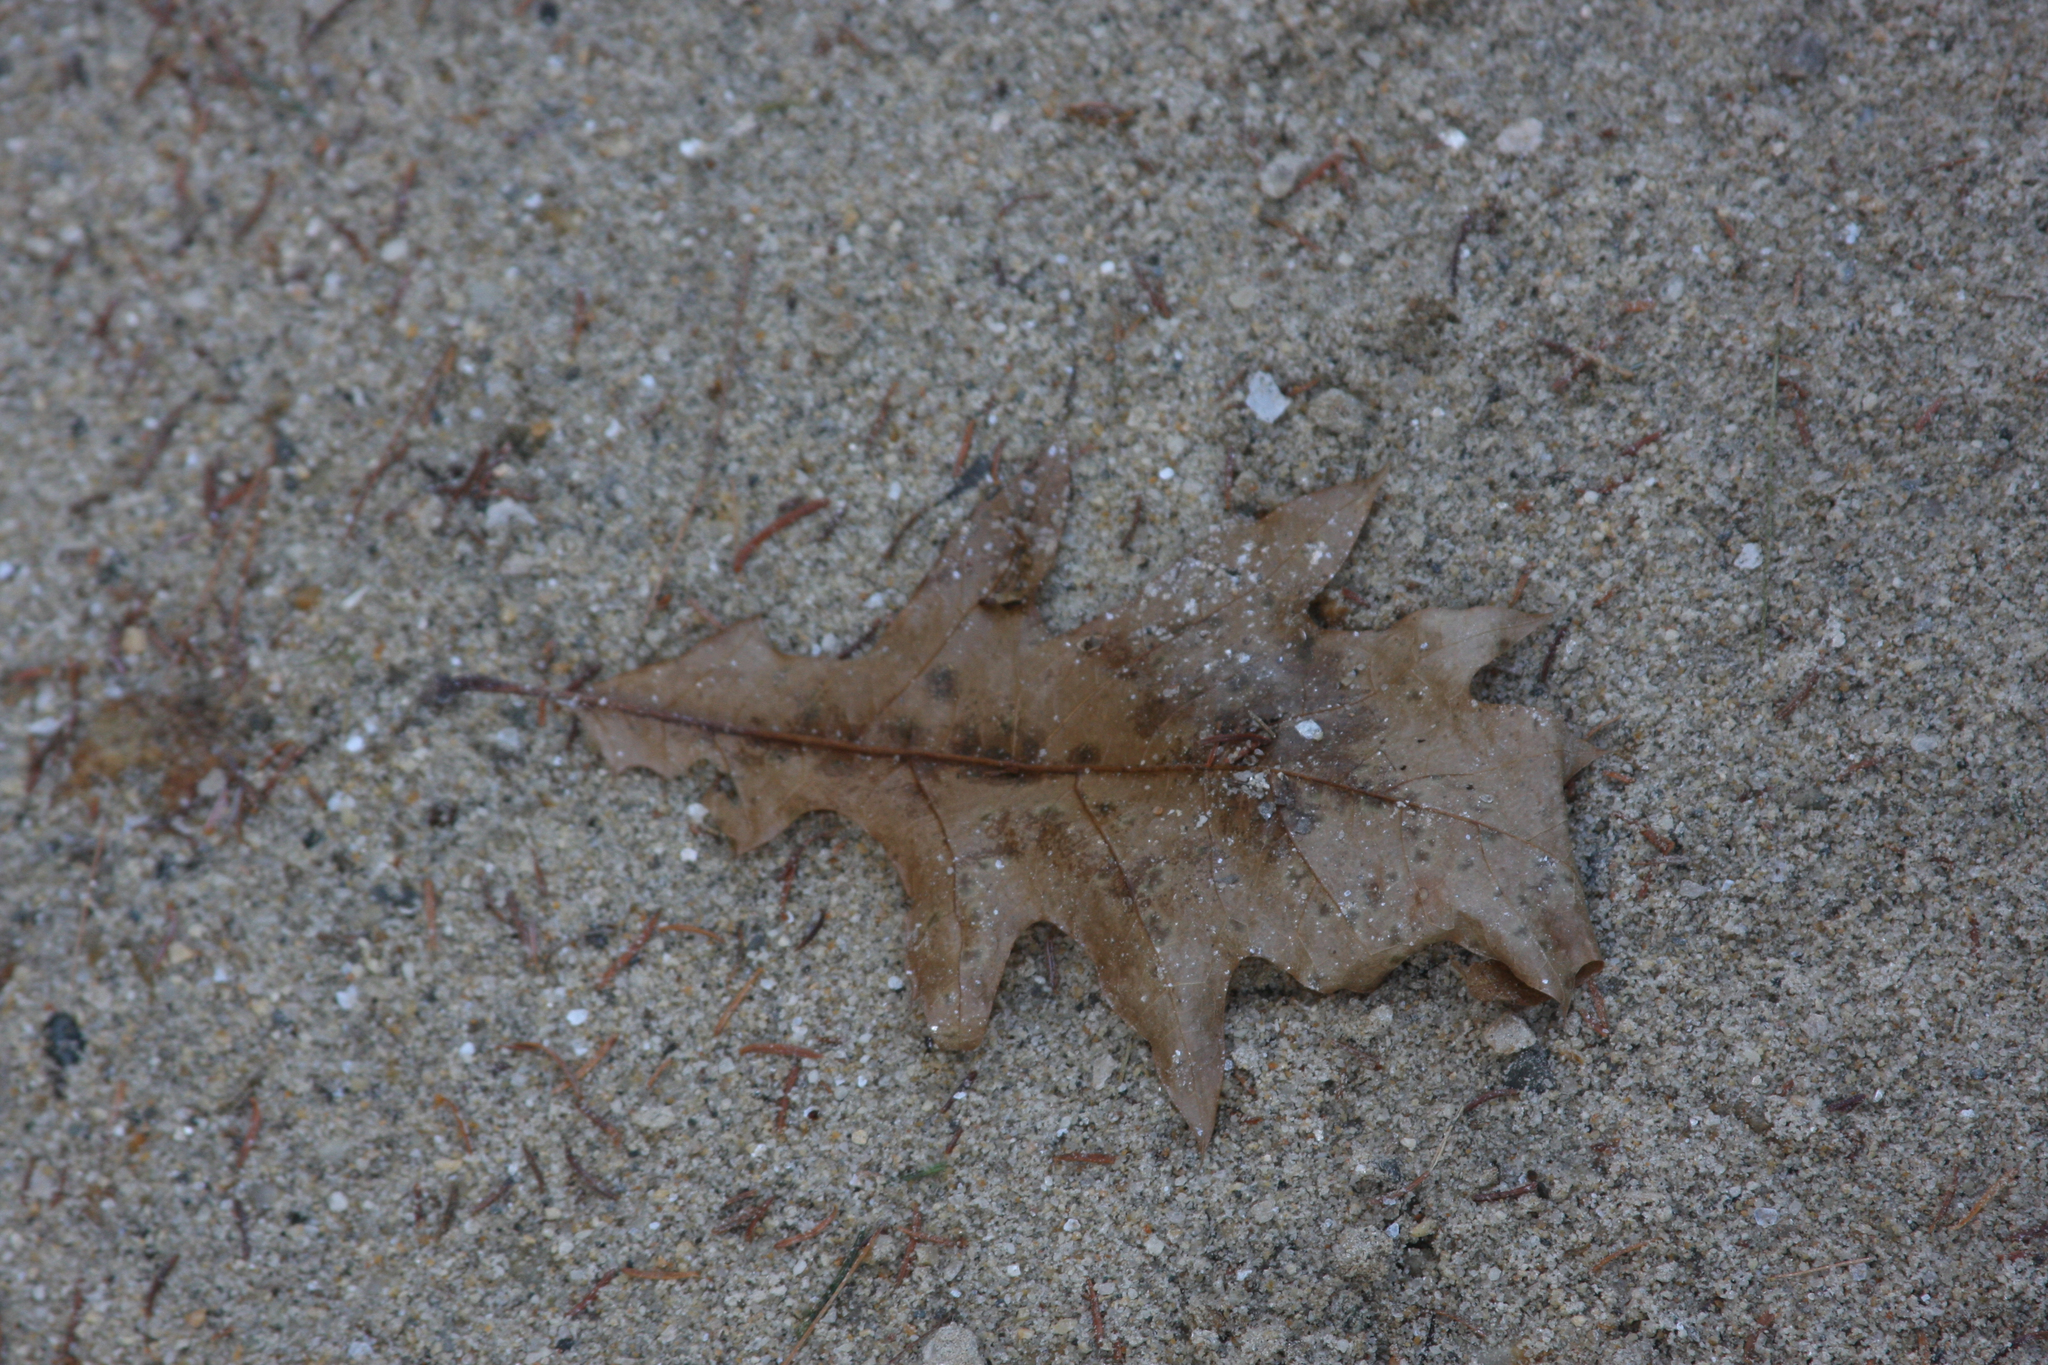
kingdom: Plantae
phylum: Tracheophyta
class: Magnoliopsida
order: Fagales
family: Fagaceae
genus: Quercus
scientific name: Quercus rubra
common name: Red oak
